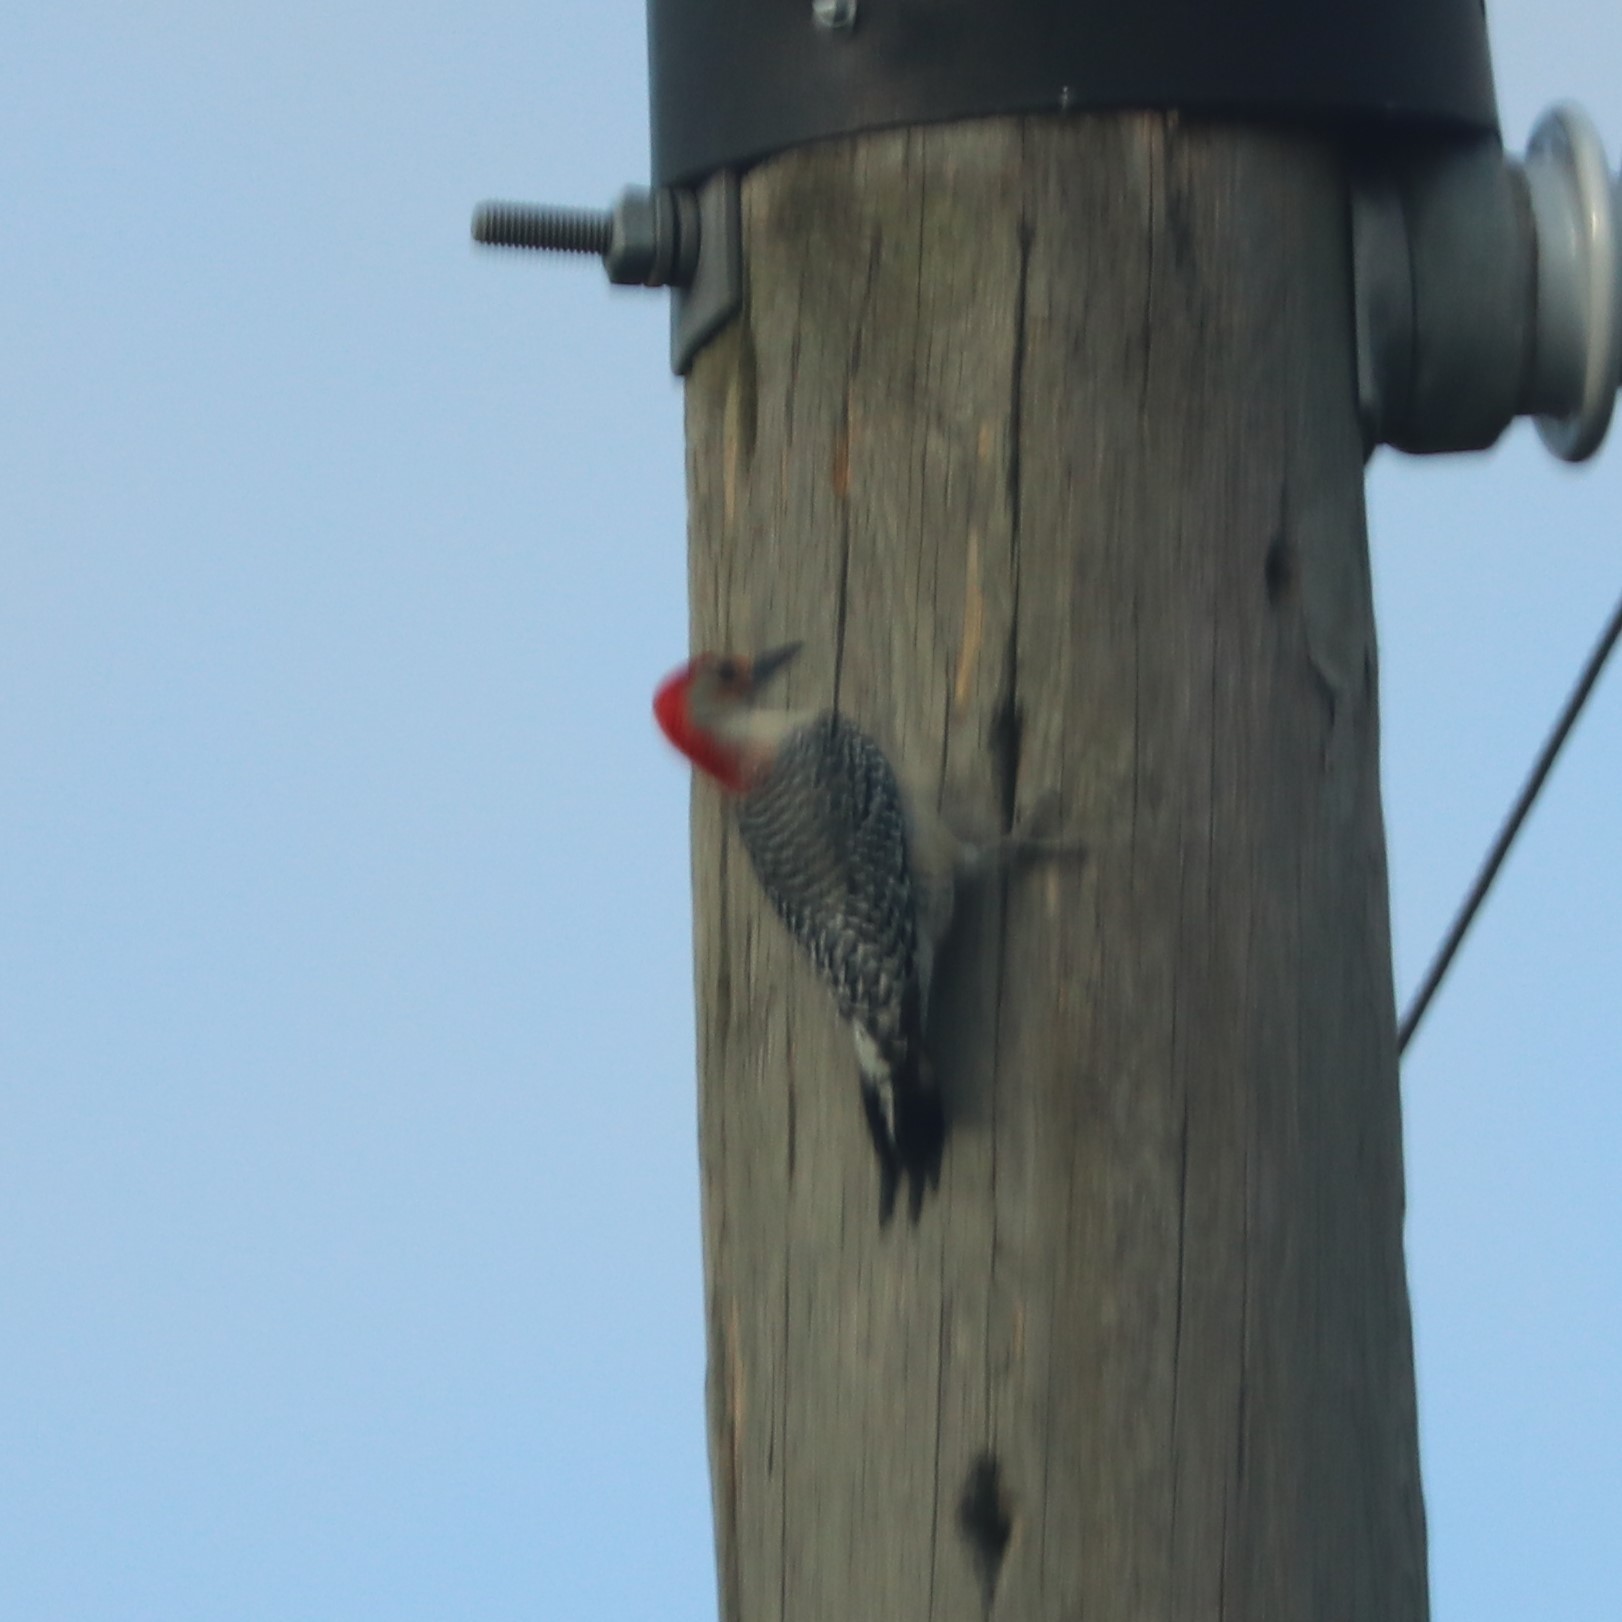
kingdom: Animalia
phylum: Chordata
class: Aves
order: Piciformes
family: Picidae
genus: Melanerpes
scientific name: Melanerpes carolinus
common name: Red-bellied woodpecker
